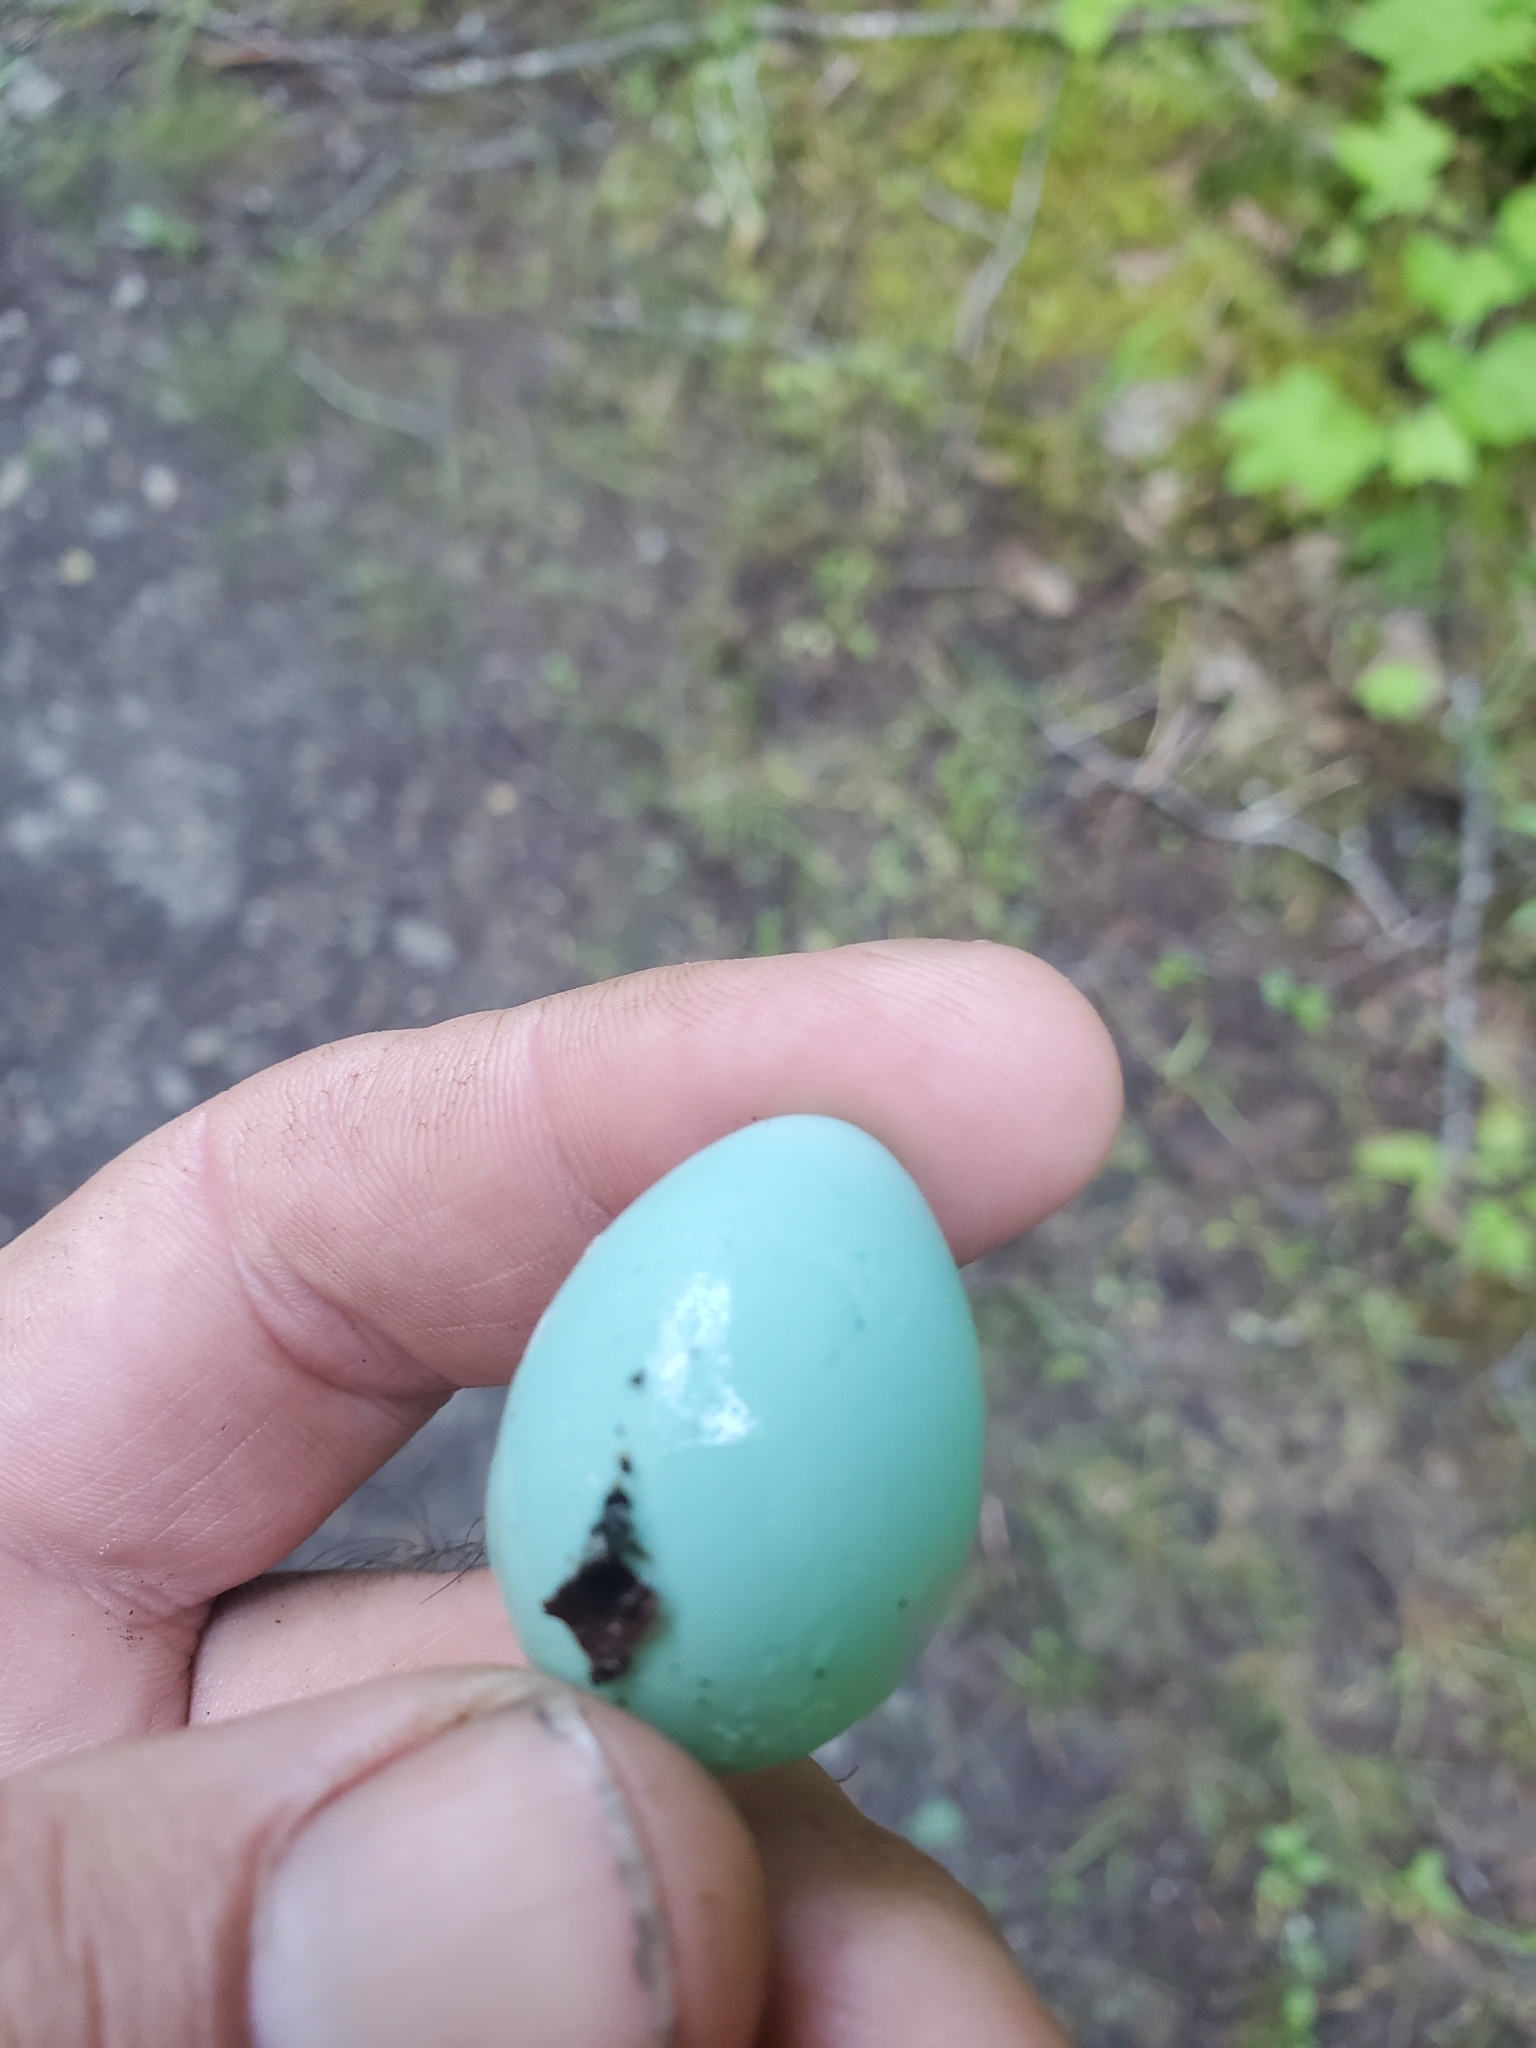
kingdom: Animalia
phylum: Chordata
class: Aves
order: Passeriformes
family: Turdidae
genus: Turdus
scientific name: Turdus migratorius
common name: American robin
